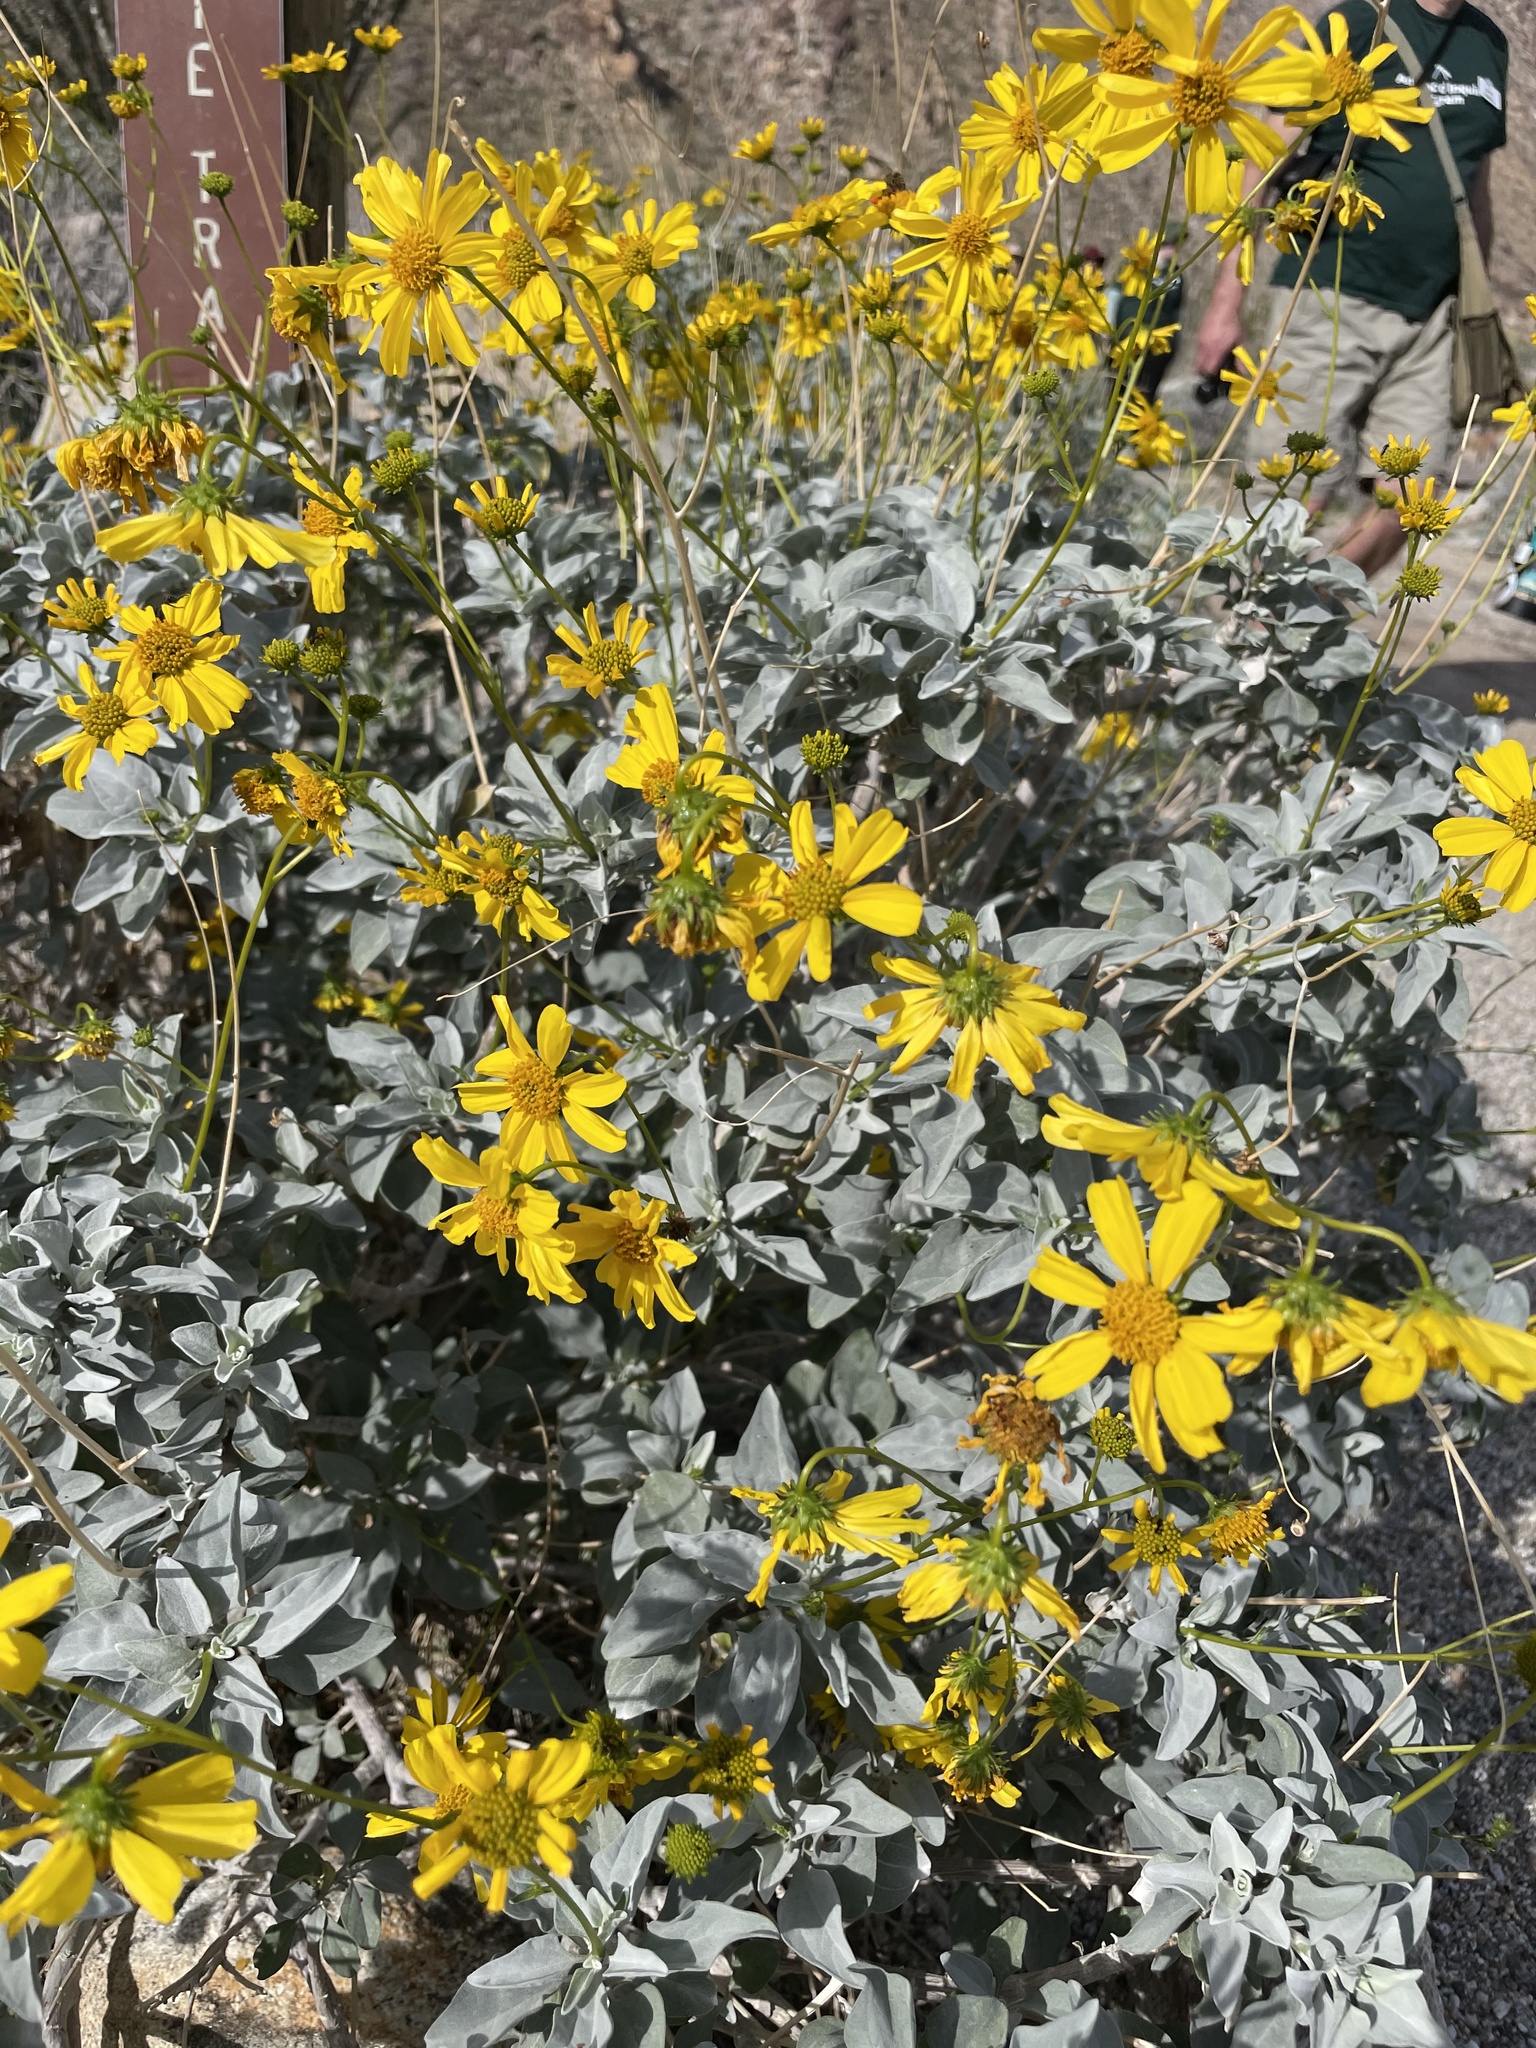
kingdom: Plantae
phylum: Tracheophyta
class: Magnoliopsida
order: Asterales
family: Asteraceae
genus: Encelia
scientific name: Encelia farinosa
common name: Brittlebush
